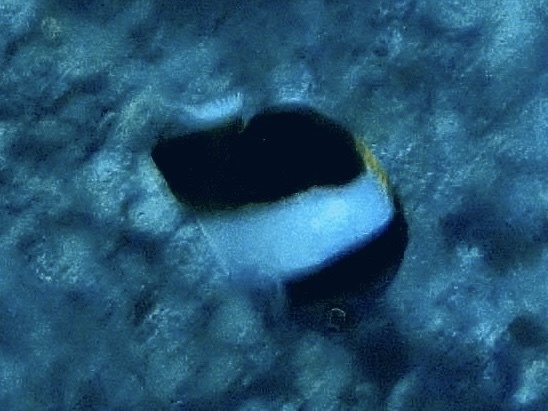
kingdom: Animalia
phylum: Chordata
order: Perciformes
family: Chaetodontidae
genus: Hemitaurichthys
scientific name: Hemitaurichthys zoster
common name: Brown-and-white butterflyfish
